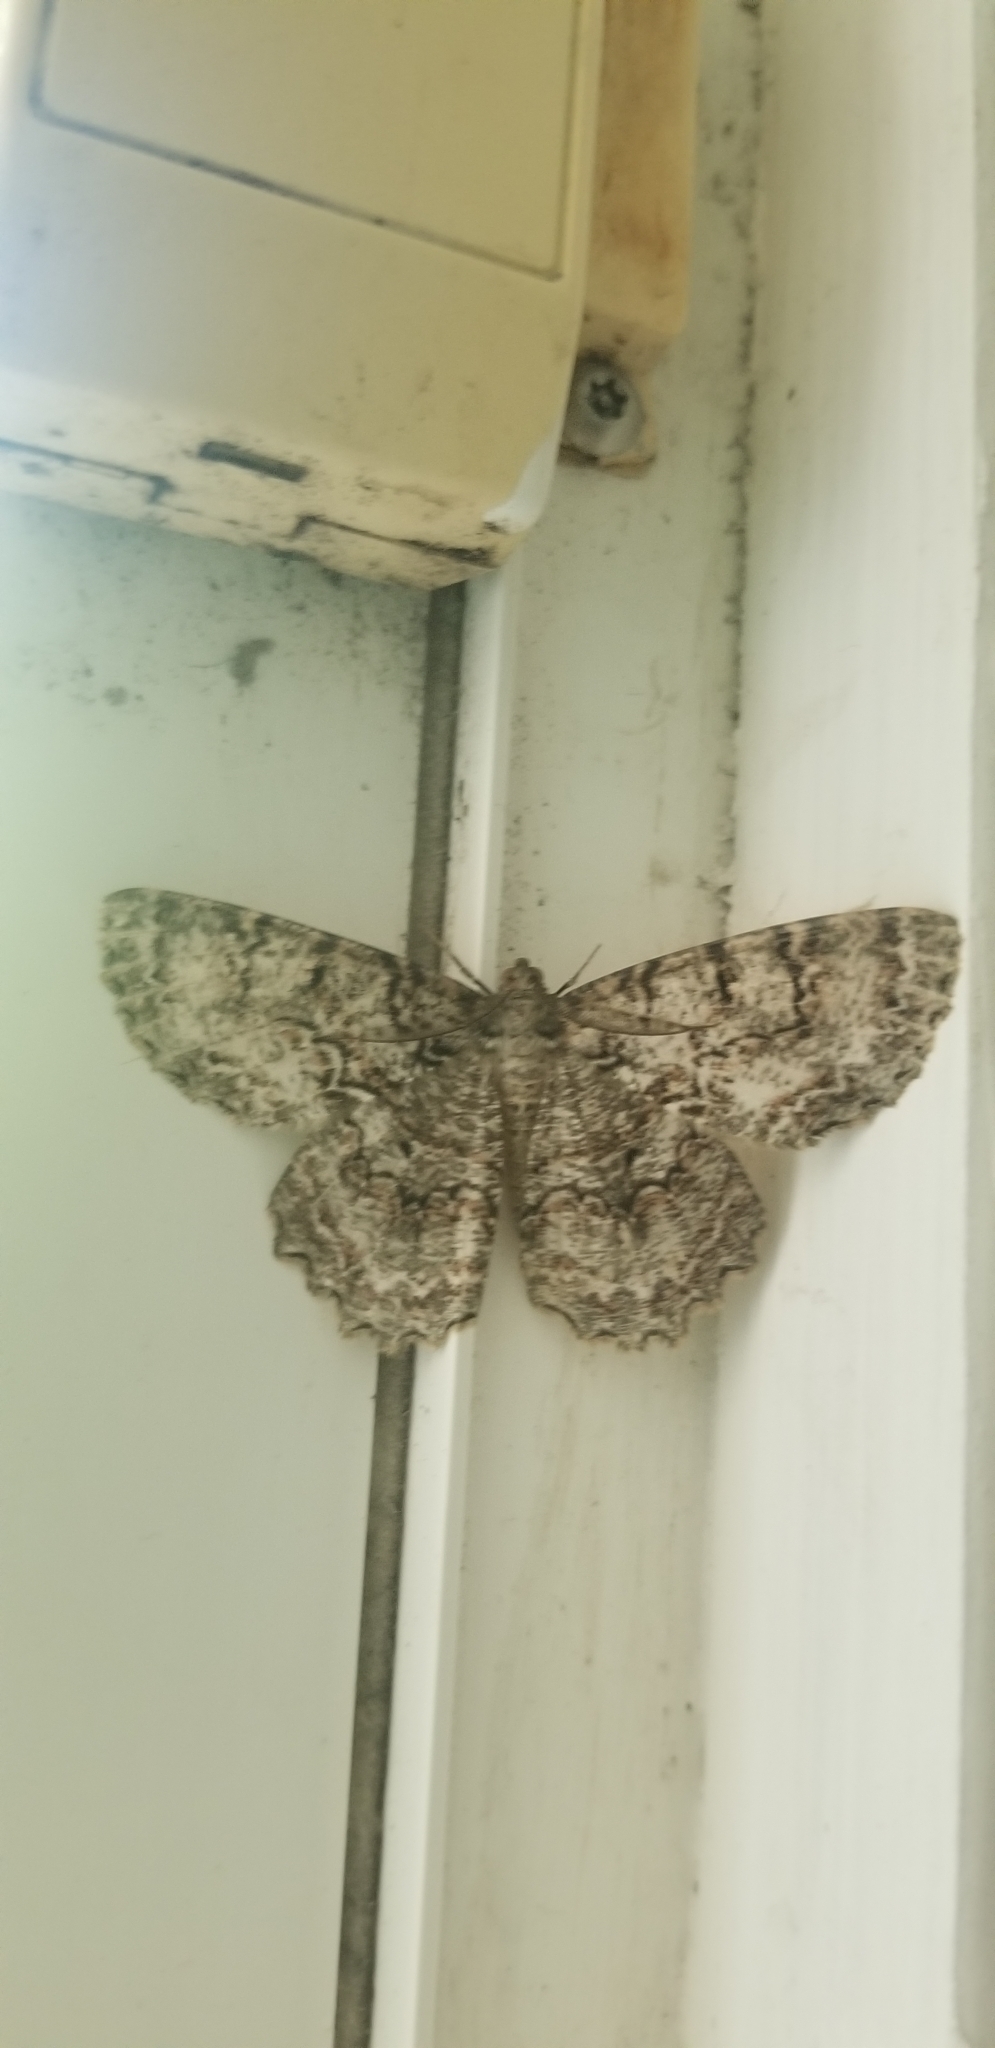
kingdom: Animalia
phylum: Arthropoda
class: Insecta
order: Lepidoptera
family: Geometridae
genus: Epimecis
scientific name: Epimecis hortaria
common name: Tulip-tree beauty
